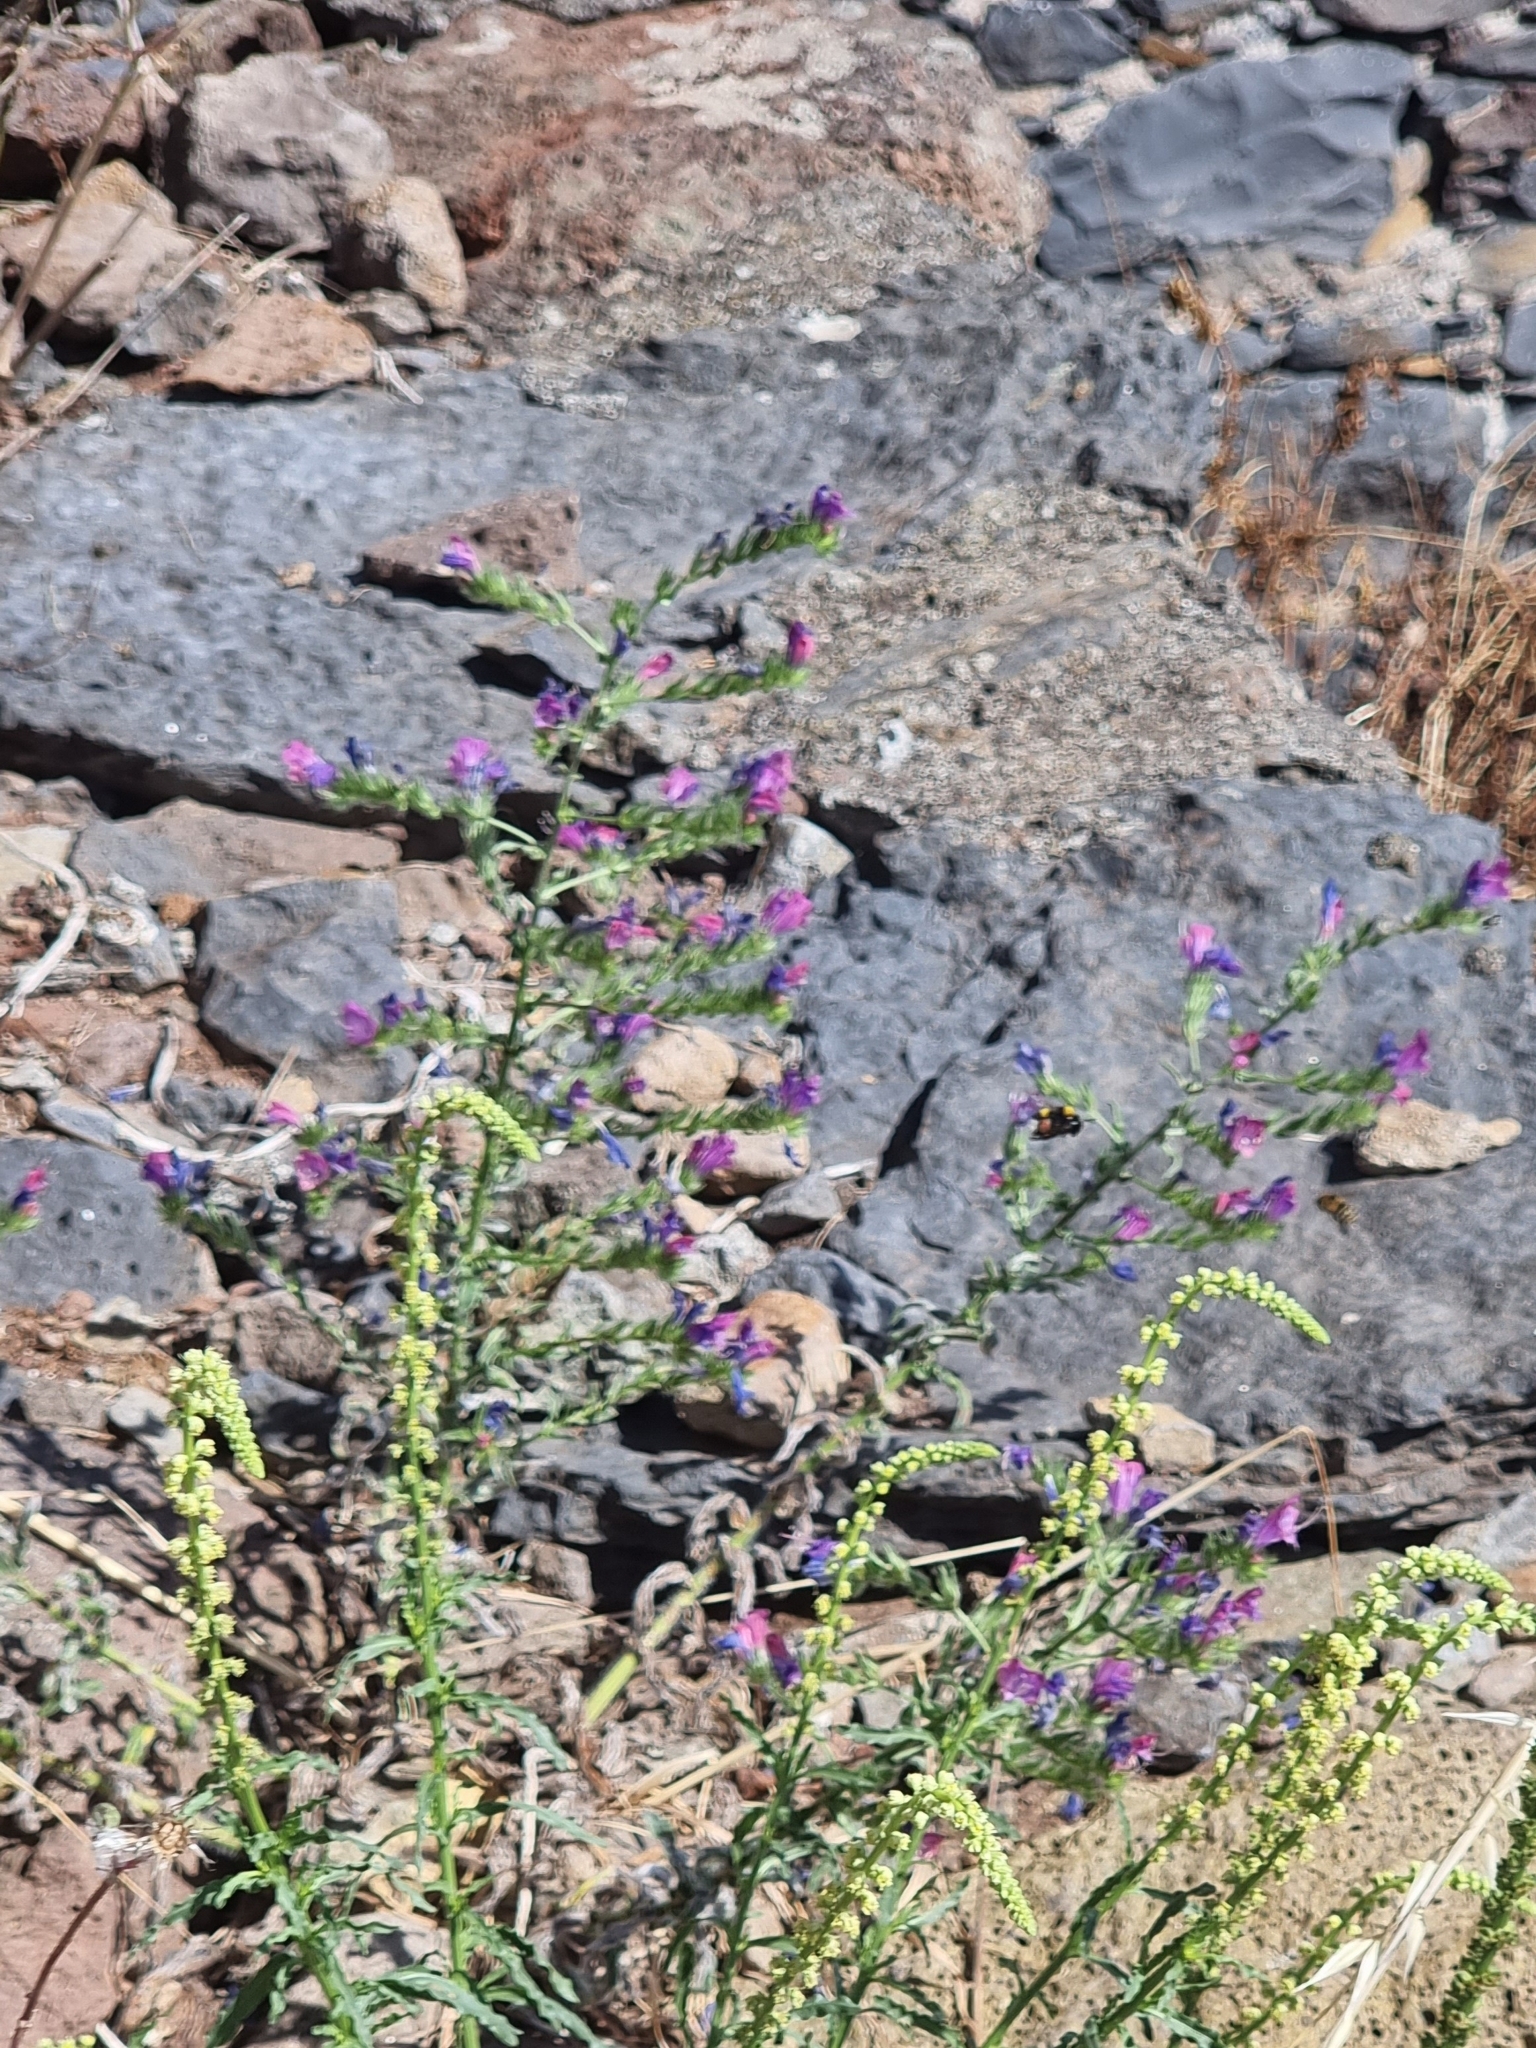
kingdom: Plantae
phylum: Tracheophyta
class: Magnoliopsida
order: Boraginales
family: Boraginaceae
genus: Echium
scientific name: Echium plantagineum
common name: Purple viper's-bugloss
